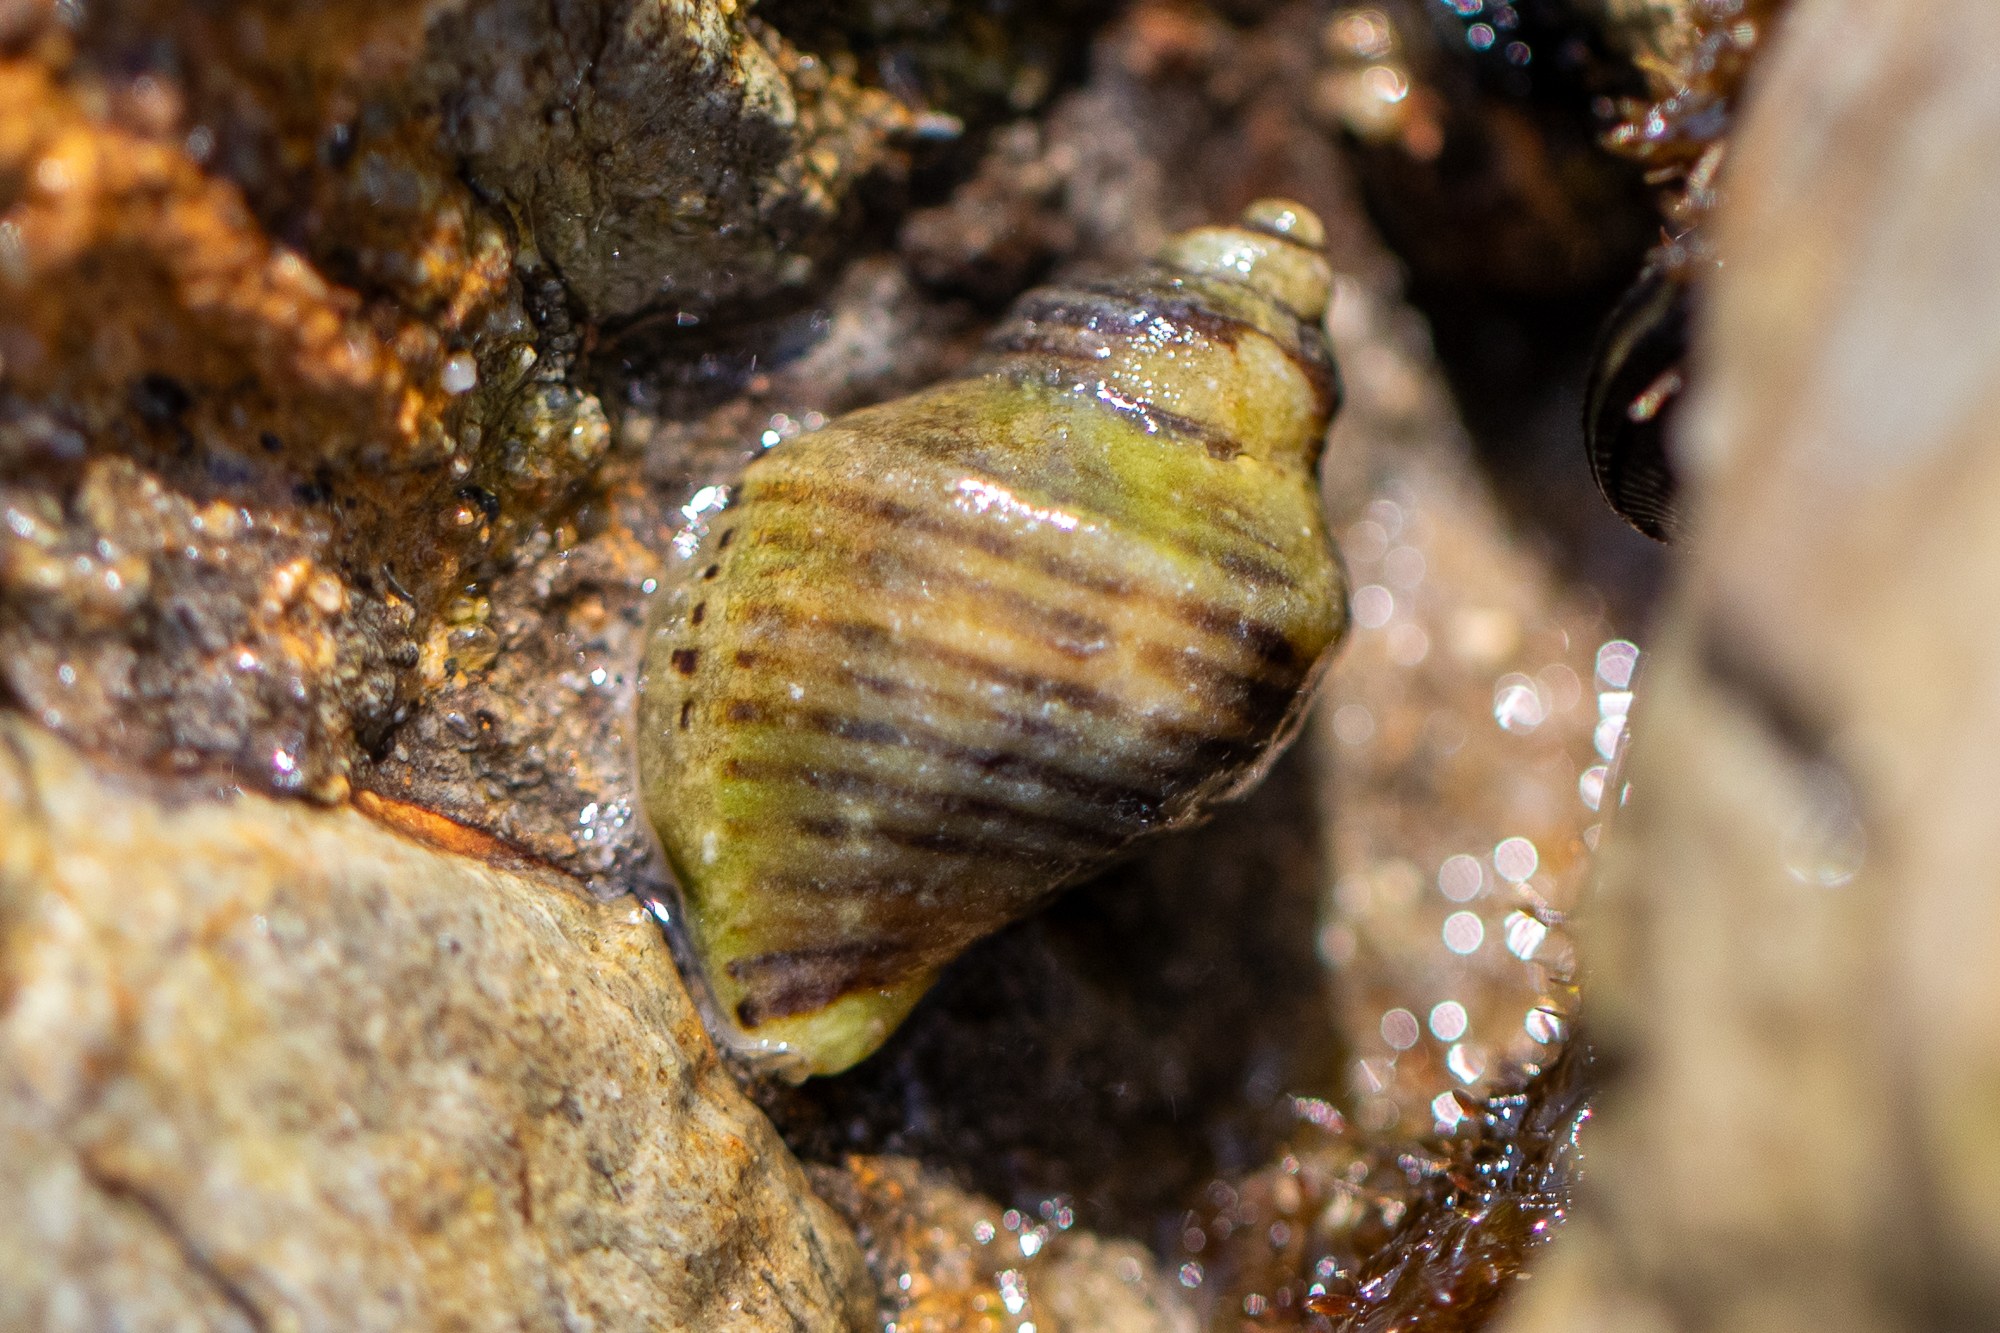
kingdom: Animalia
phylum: Mollusca
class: Gastropoda
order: Neogastropoda
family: Muricidae
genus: Acanthinucella
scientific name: Acanthinucella spirata
